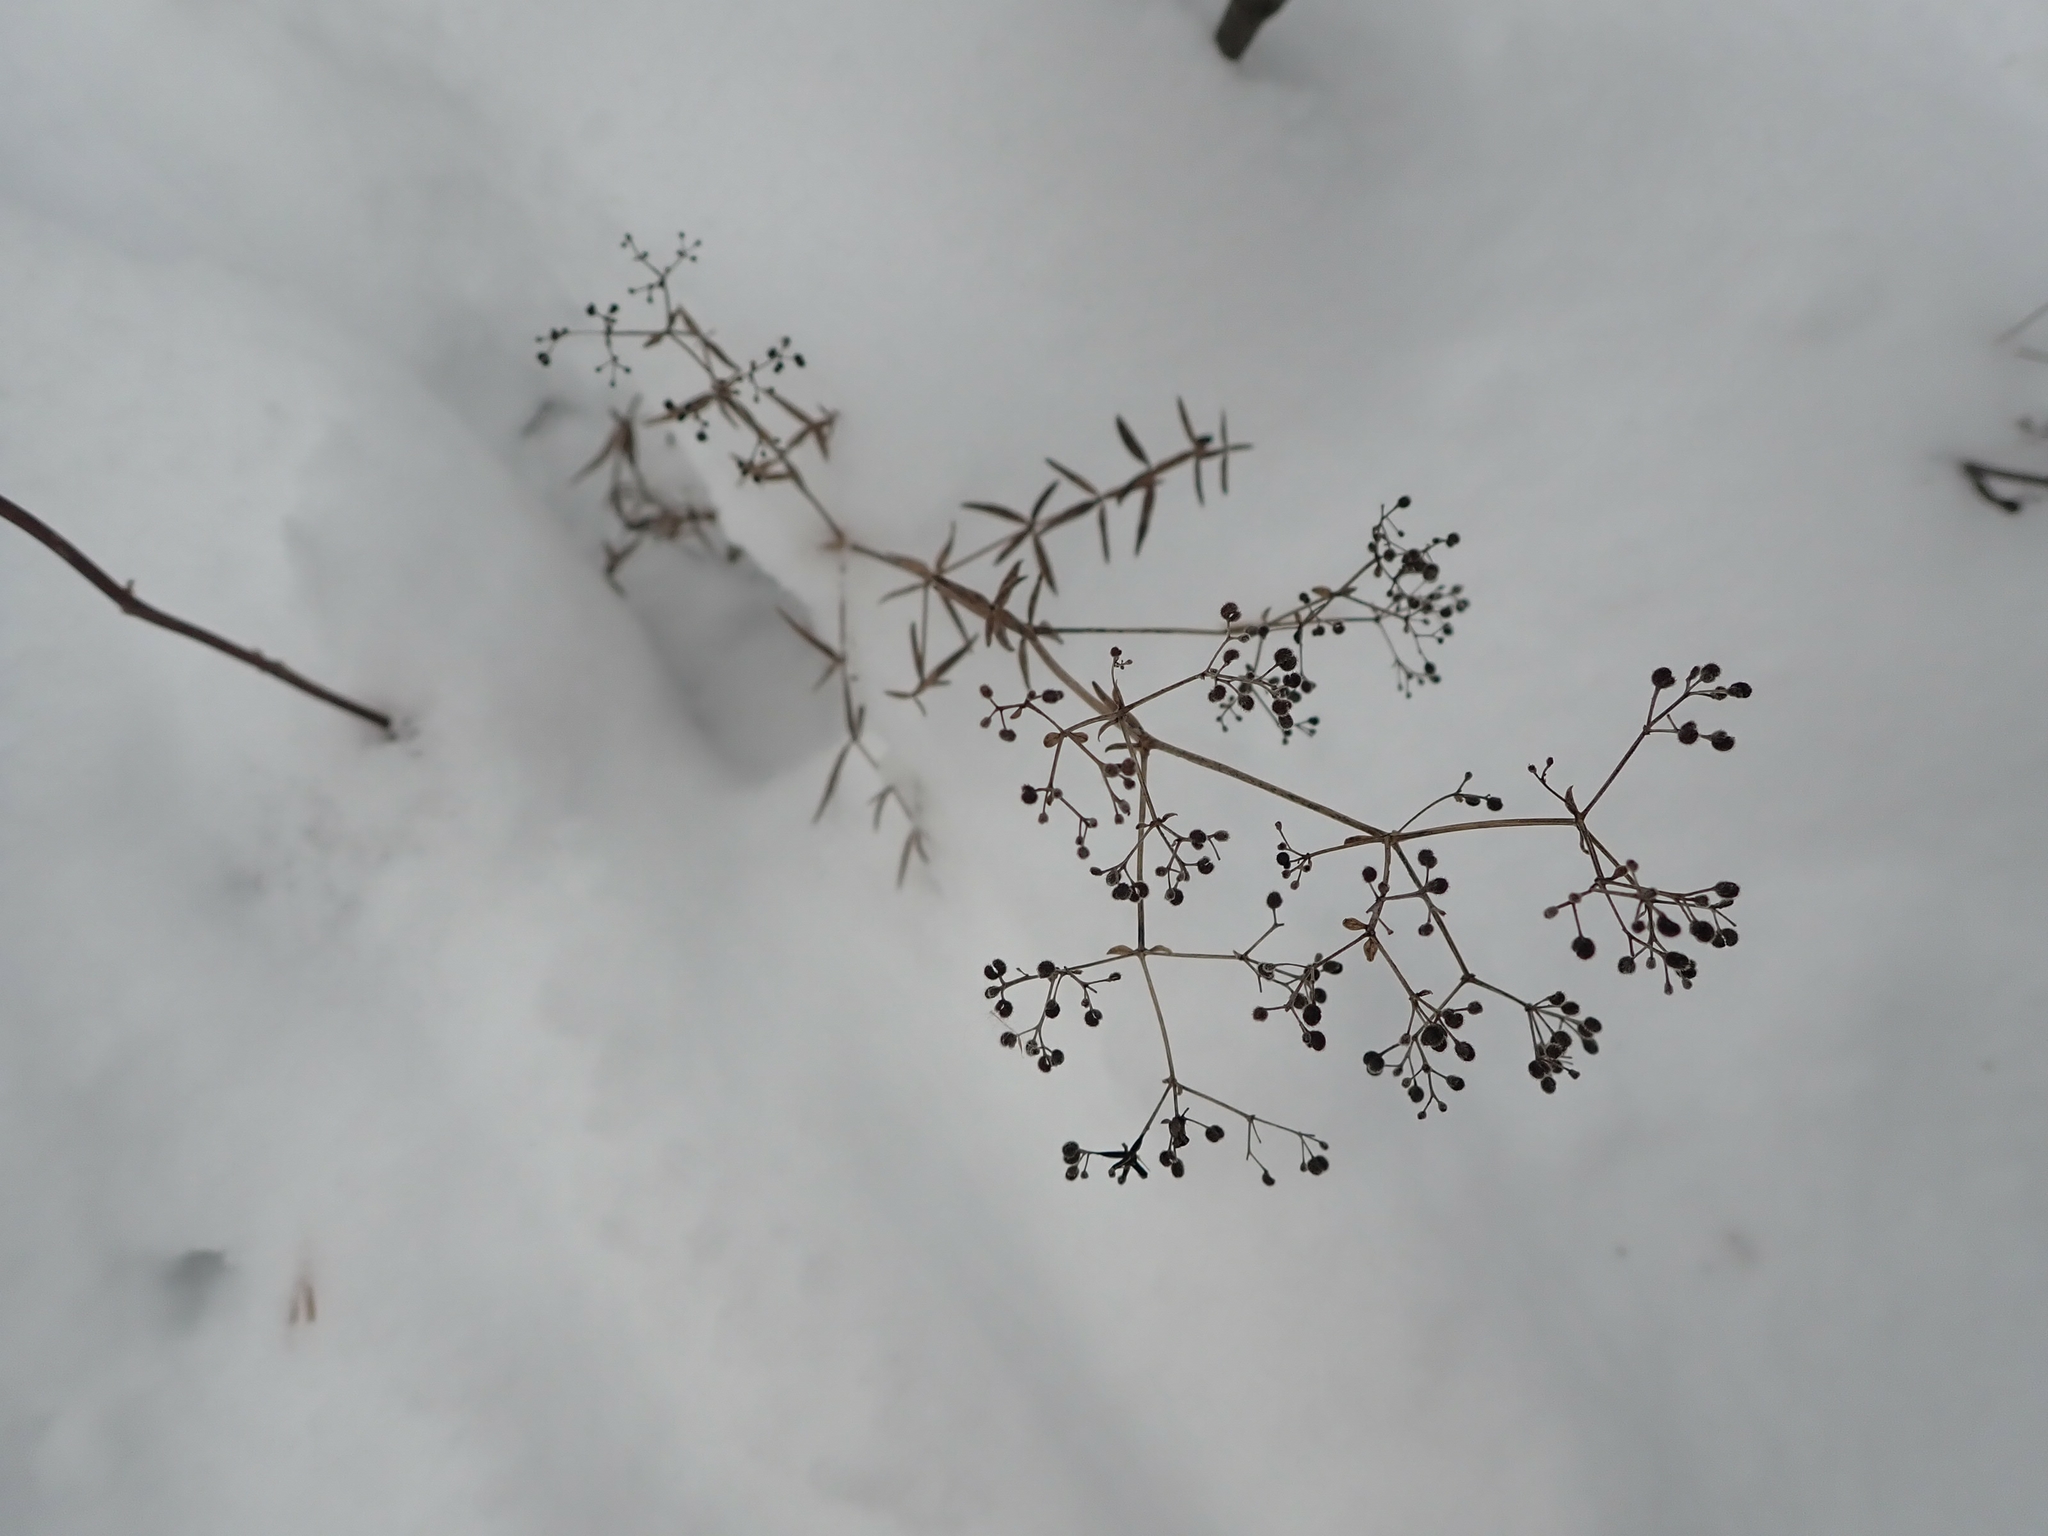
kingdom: Plantae
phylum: Tracheophyta
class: Magnoliopsida
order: Gentianales
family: Rubiaceae
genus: Galium
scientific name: Galium boreale
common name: Northern bedstraw
